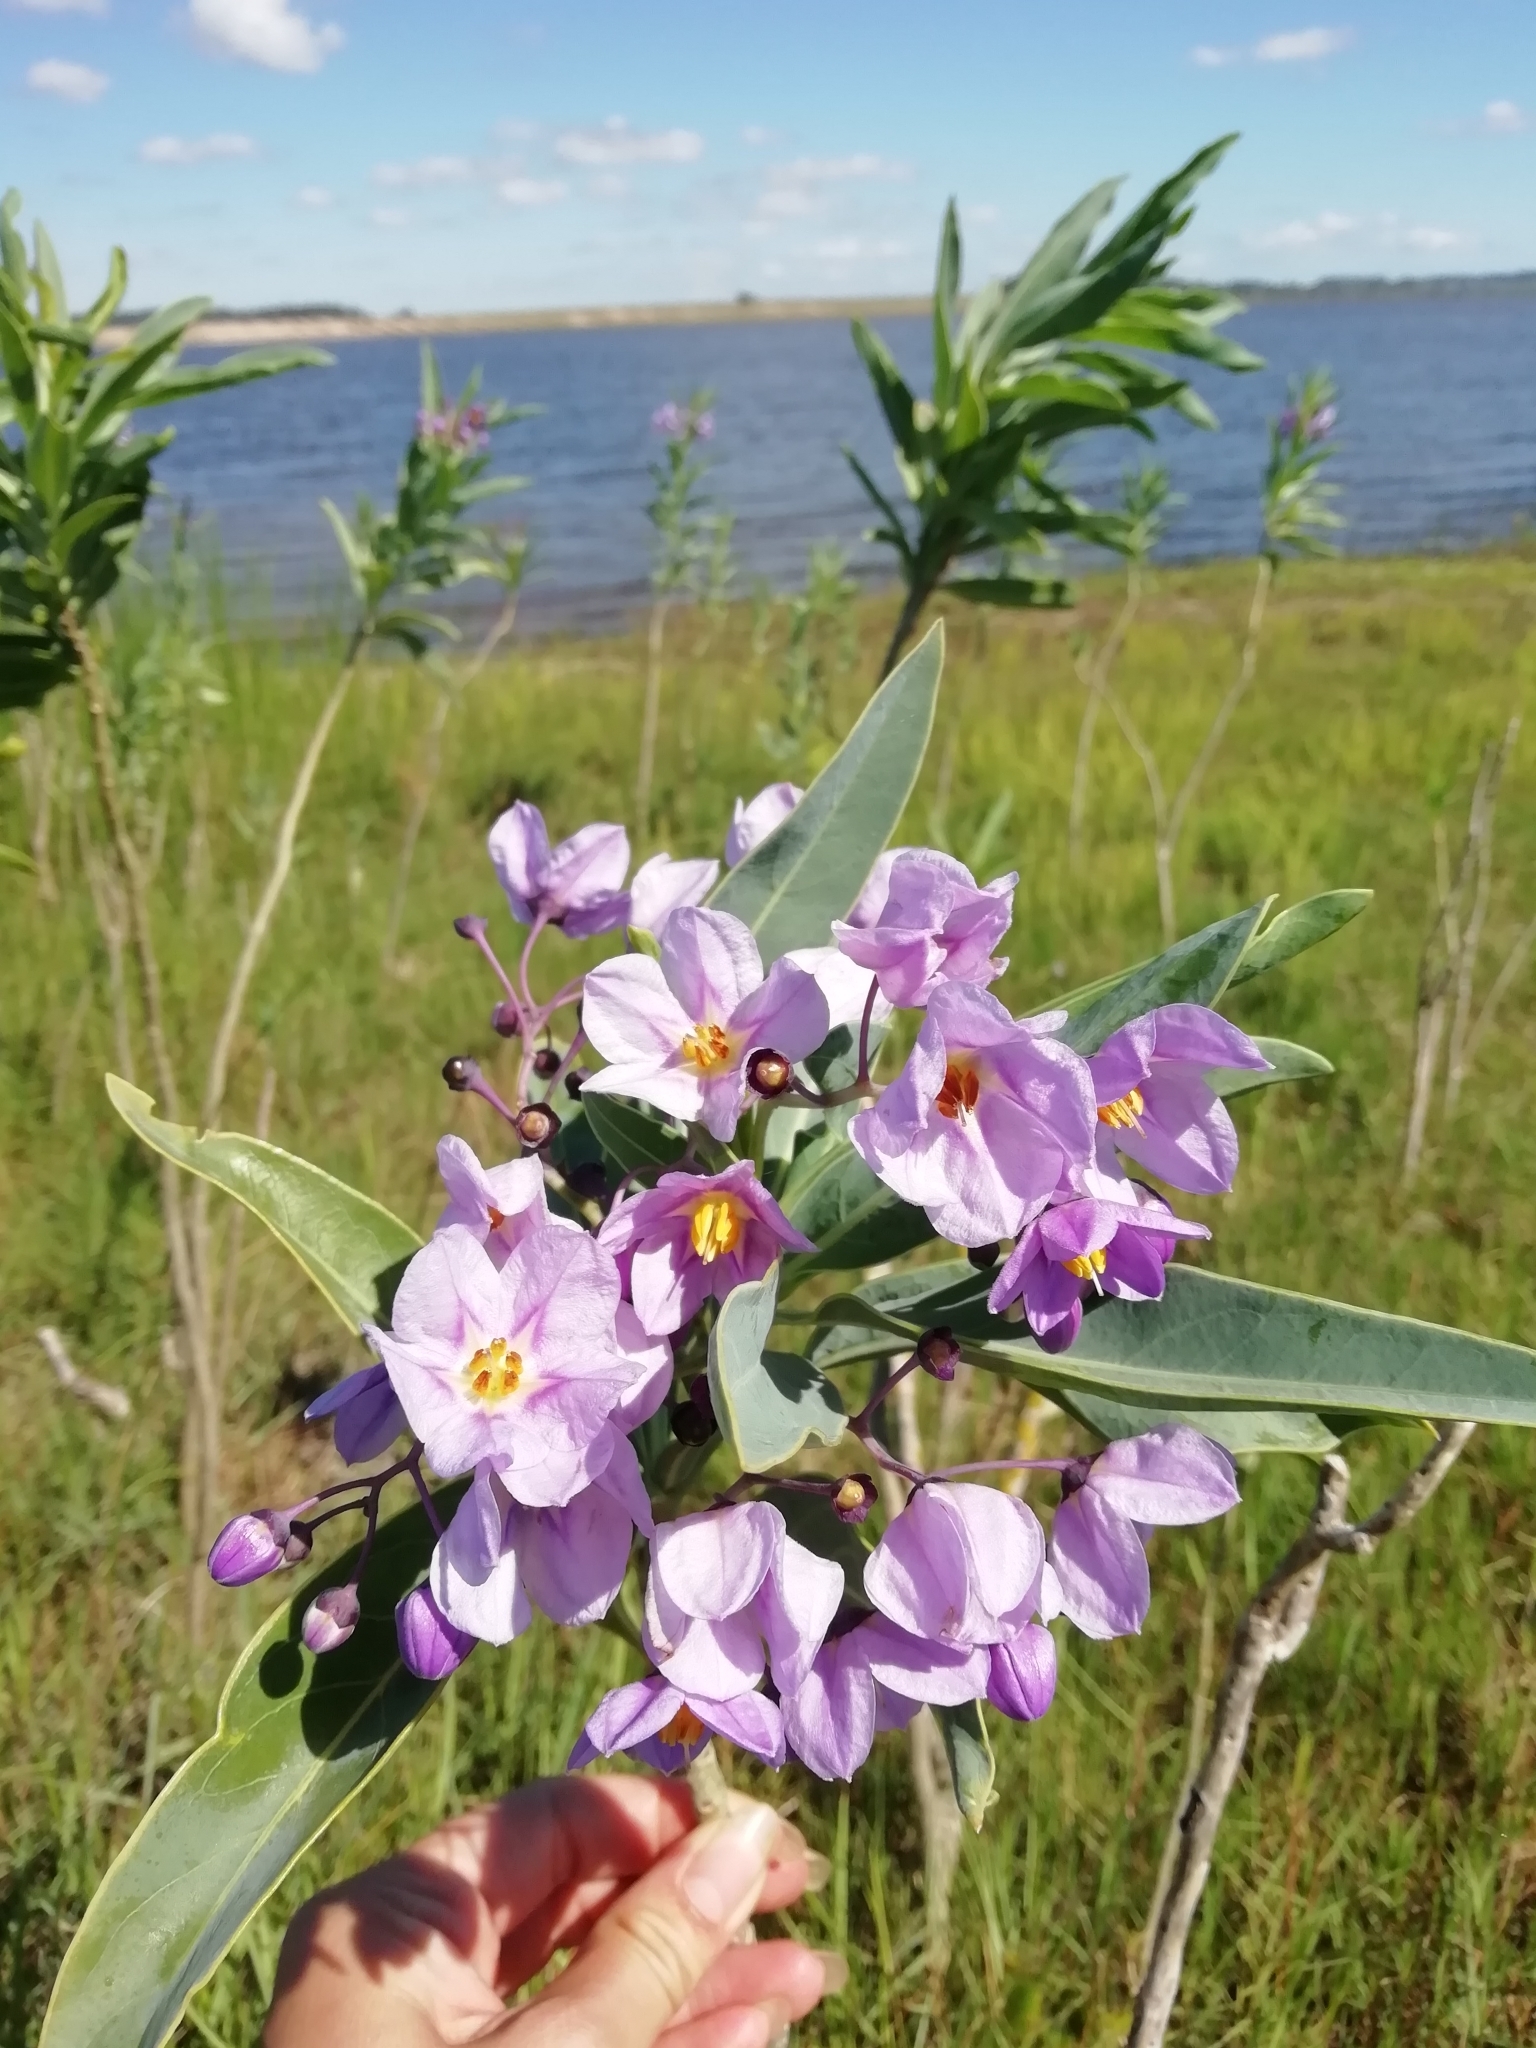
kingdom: Plantae
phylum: Tracheophyta
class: Magnoliopsida
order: Solanales
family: Solanaceae
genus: Solanum
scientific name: Solanum glaucophyllum
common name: Waxyleaf nightshade
